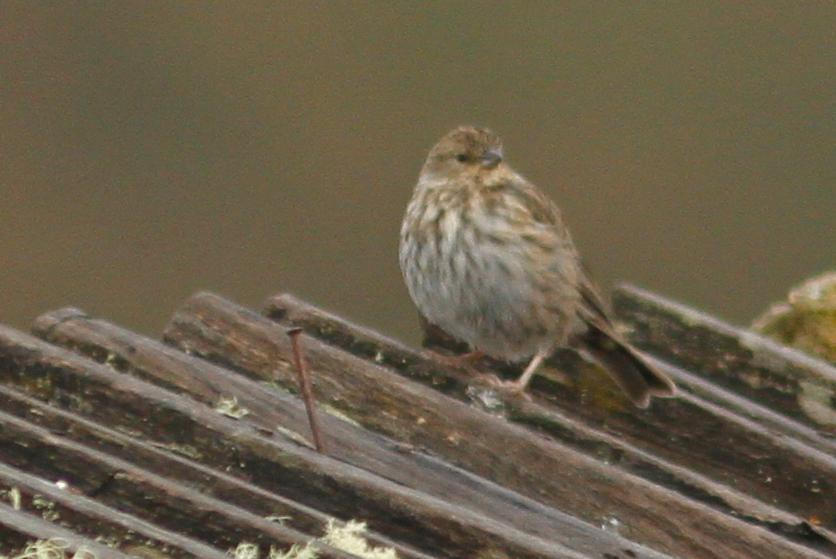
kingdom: Animalia
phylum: Chordata
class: Aves
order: Passeriformes
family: Thraupidae
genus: Geospizopsis
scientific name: Geospizopsis unicolor
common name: Plumbeous sierra-finch
